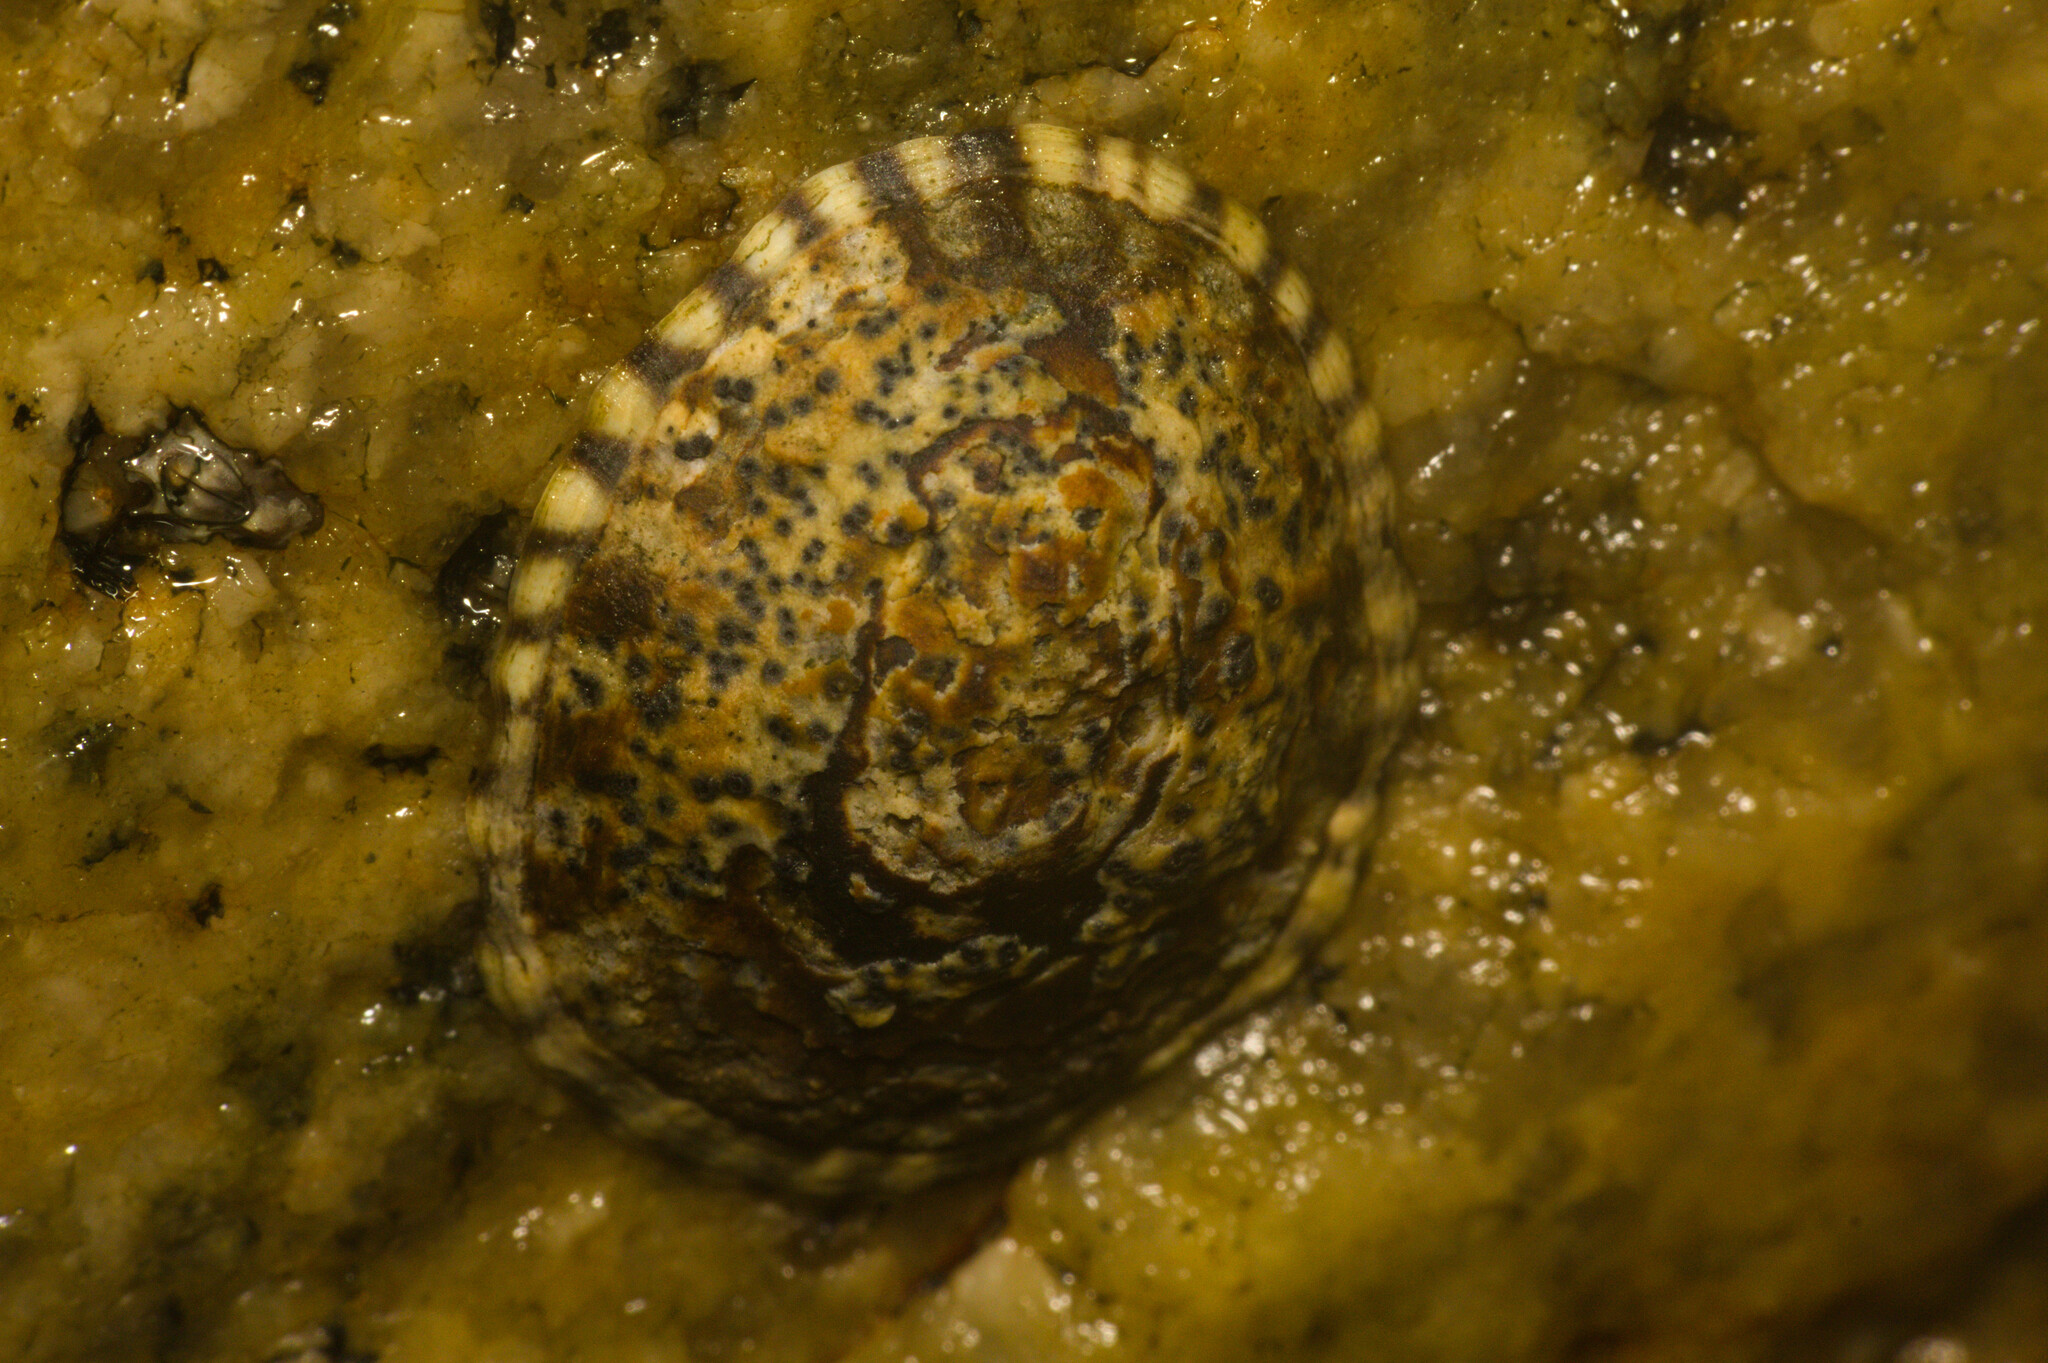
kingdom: Animalia
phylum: Mollusca
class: Gastropoda
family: Lottiidae
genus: Lottia
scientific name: Lottia subrugosa
